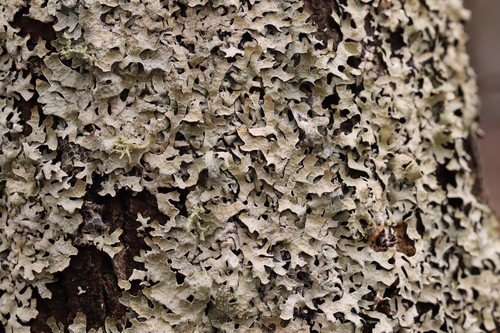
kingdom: Fungi
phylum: Ascomycota
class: Lecanoromycetes
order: Lecanorales
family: Parmeliaceae
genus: Parmelia
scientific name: Parmelia sulcata
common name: Netted shield lichen
